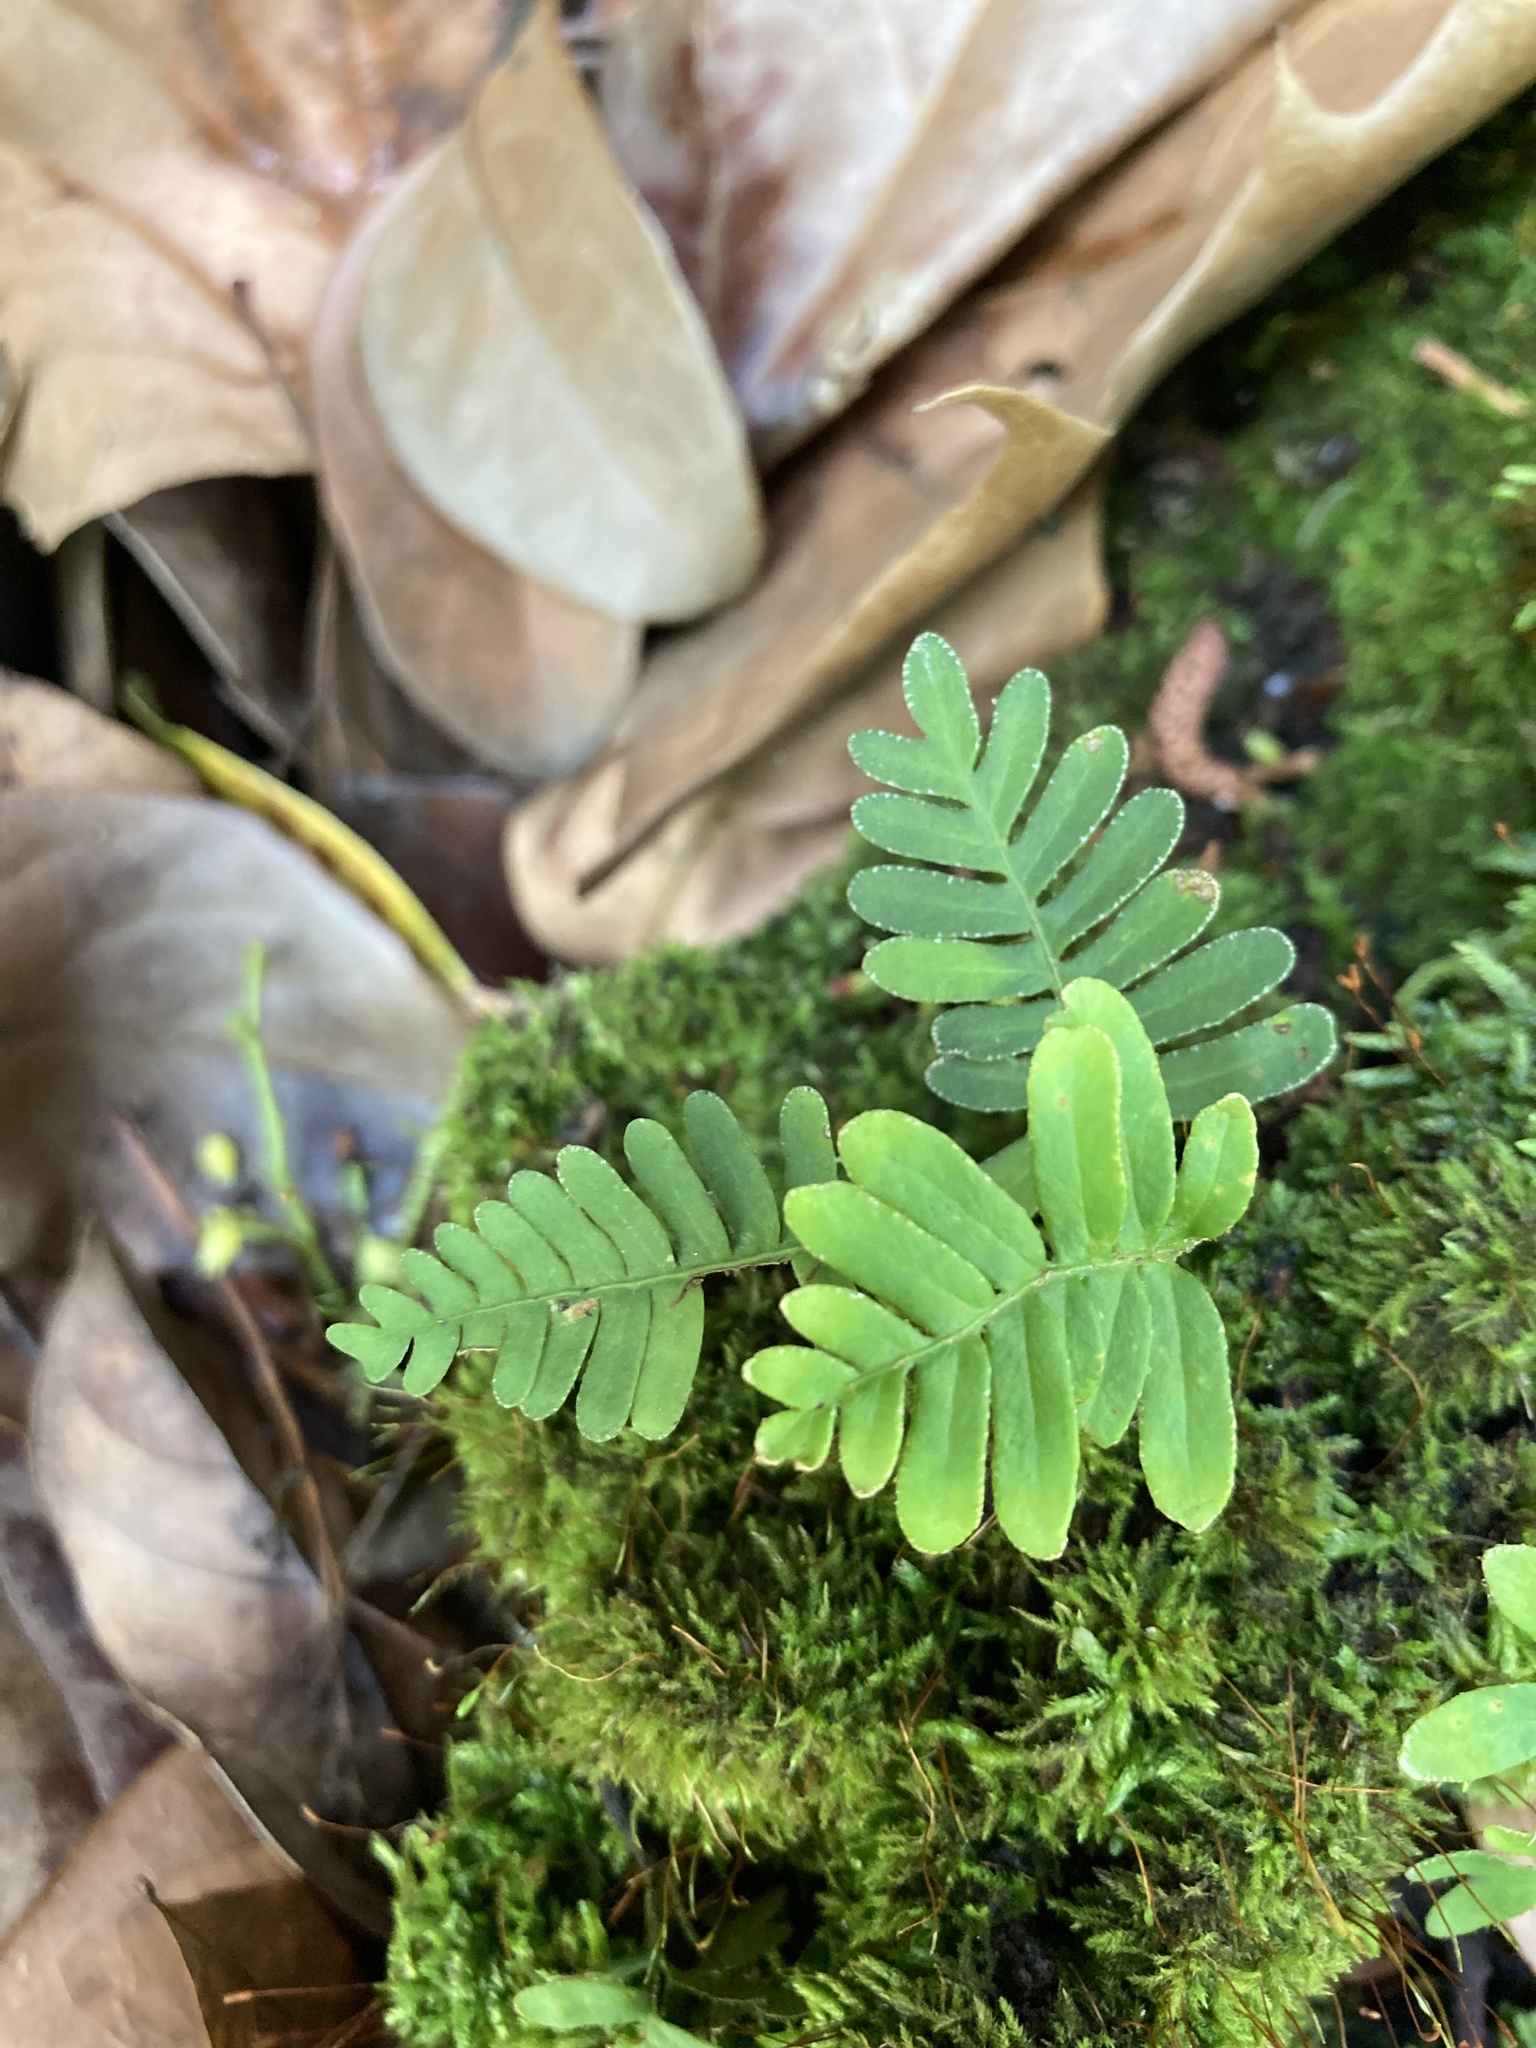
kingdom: Plantae
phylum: Tracheophyta
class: Polypodiopsida
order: Polypodiales
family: Polypodiaceae
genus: Pleopeltis
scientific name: Pleopeltis michauxiana
